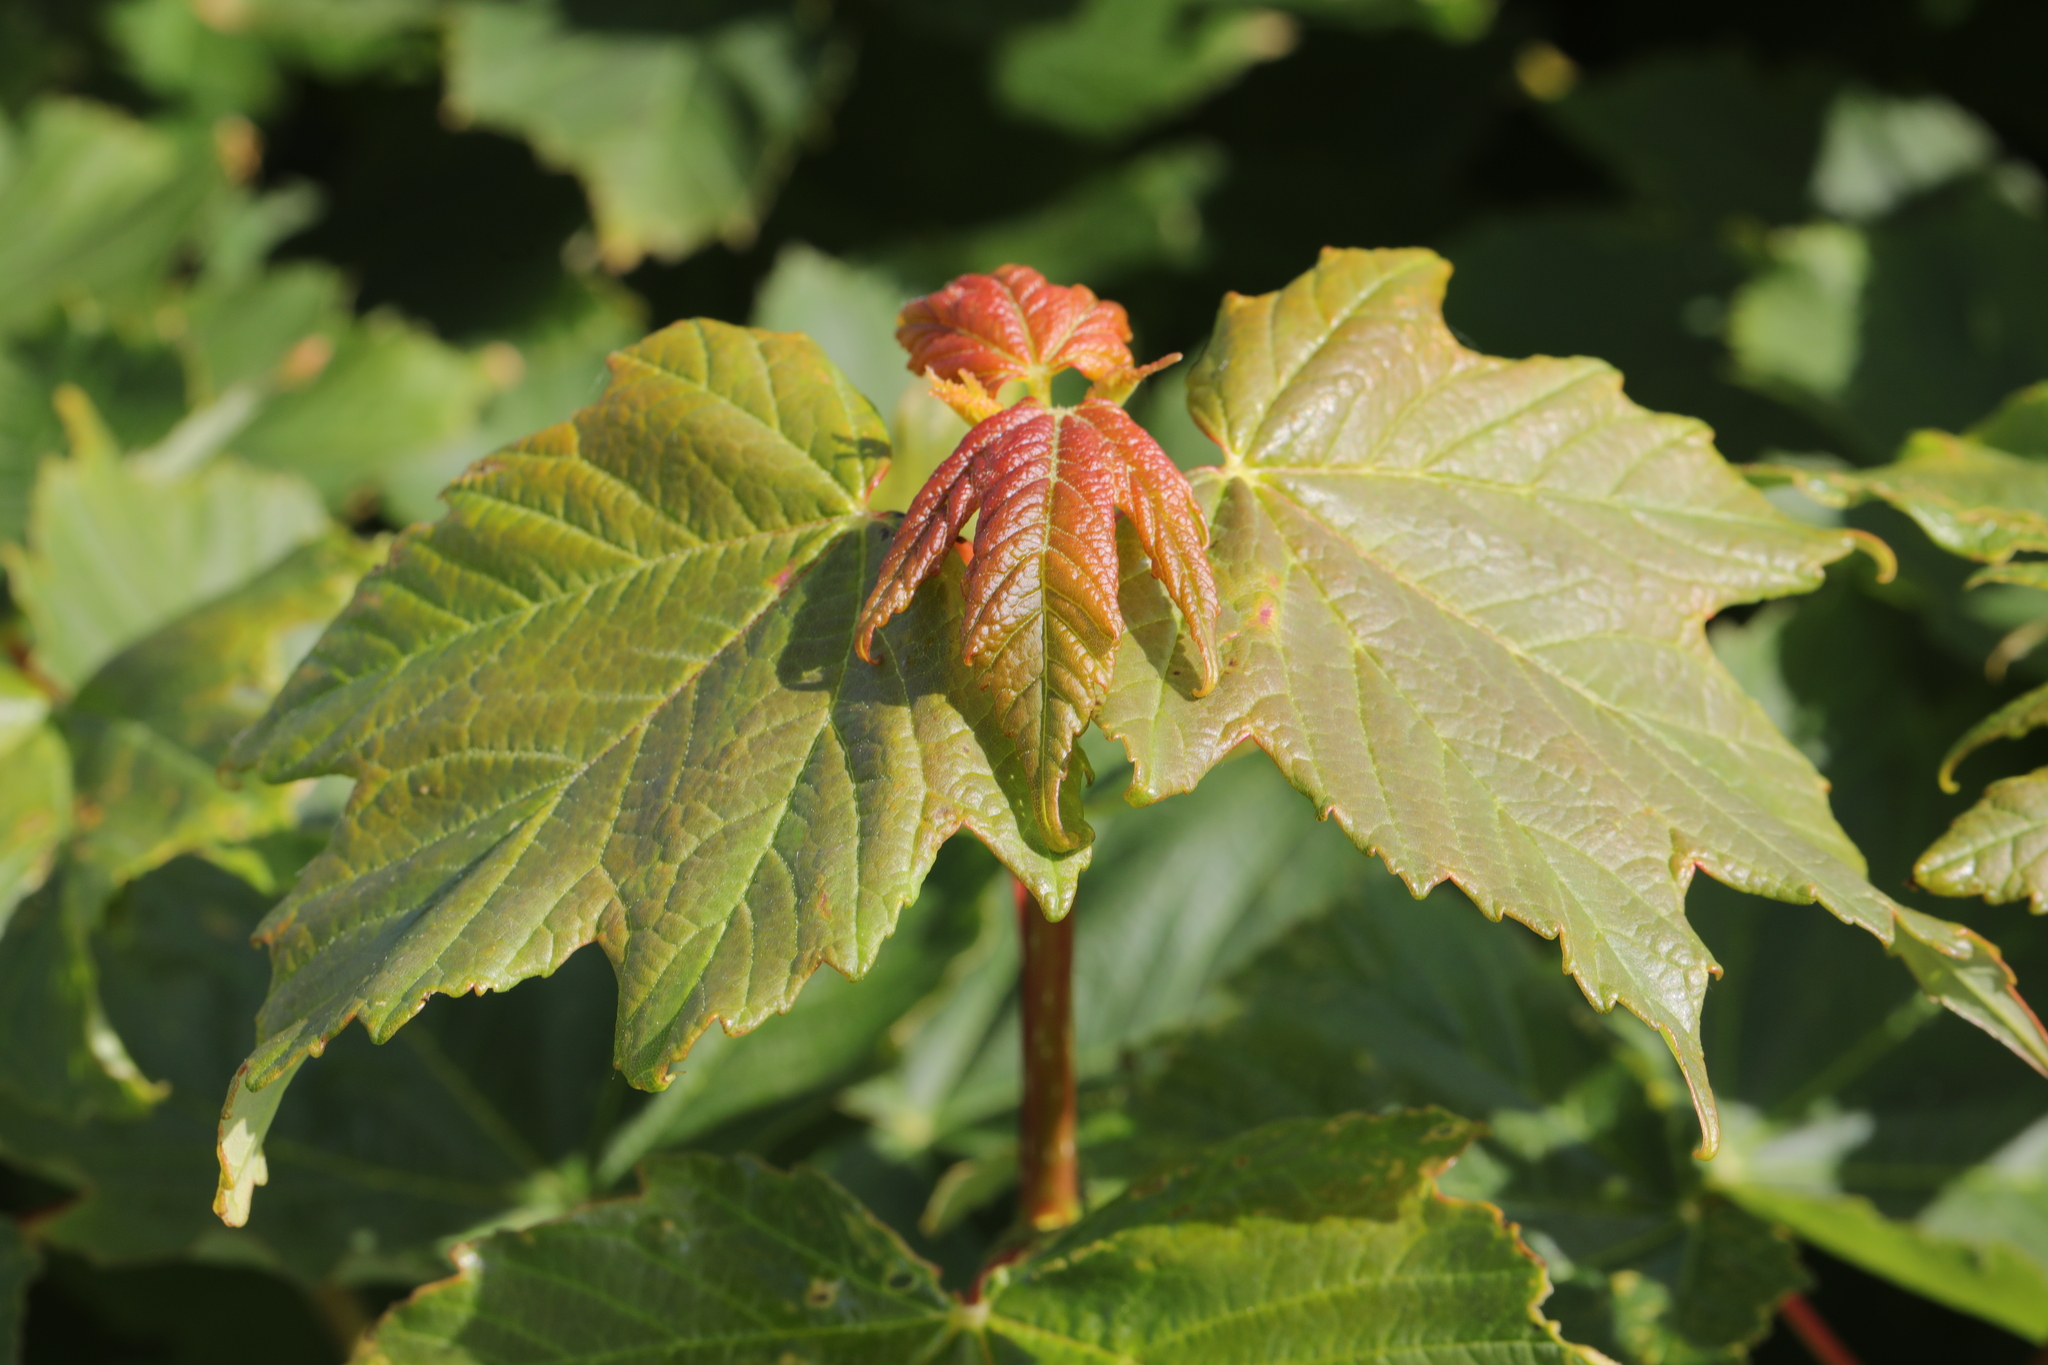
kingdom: Plantae
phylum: Tracheophyta
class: Magnoliopsida
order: Sapindales
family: Sapindaceae
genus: Acer
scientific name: Acer pseudoplatanus
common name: Sycamore
